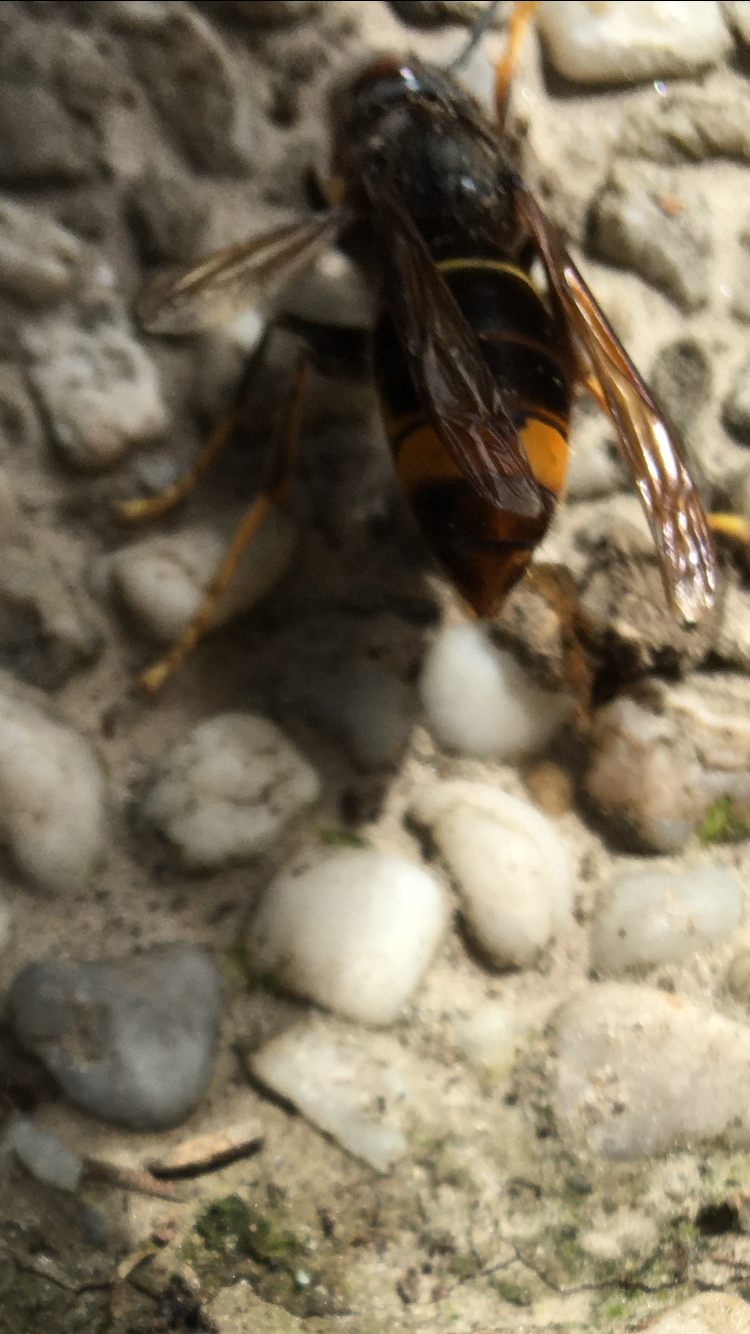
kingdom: Animalia
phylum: Arthropoda
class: Insecta
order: Hymenoptera
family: Vespidae
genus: Vespa
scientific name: Vespa velutina
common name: Asian hornet
